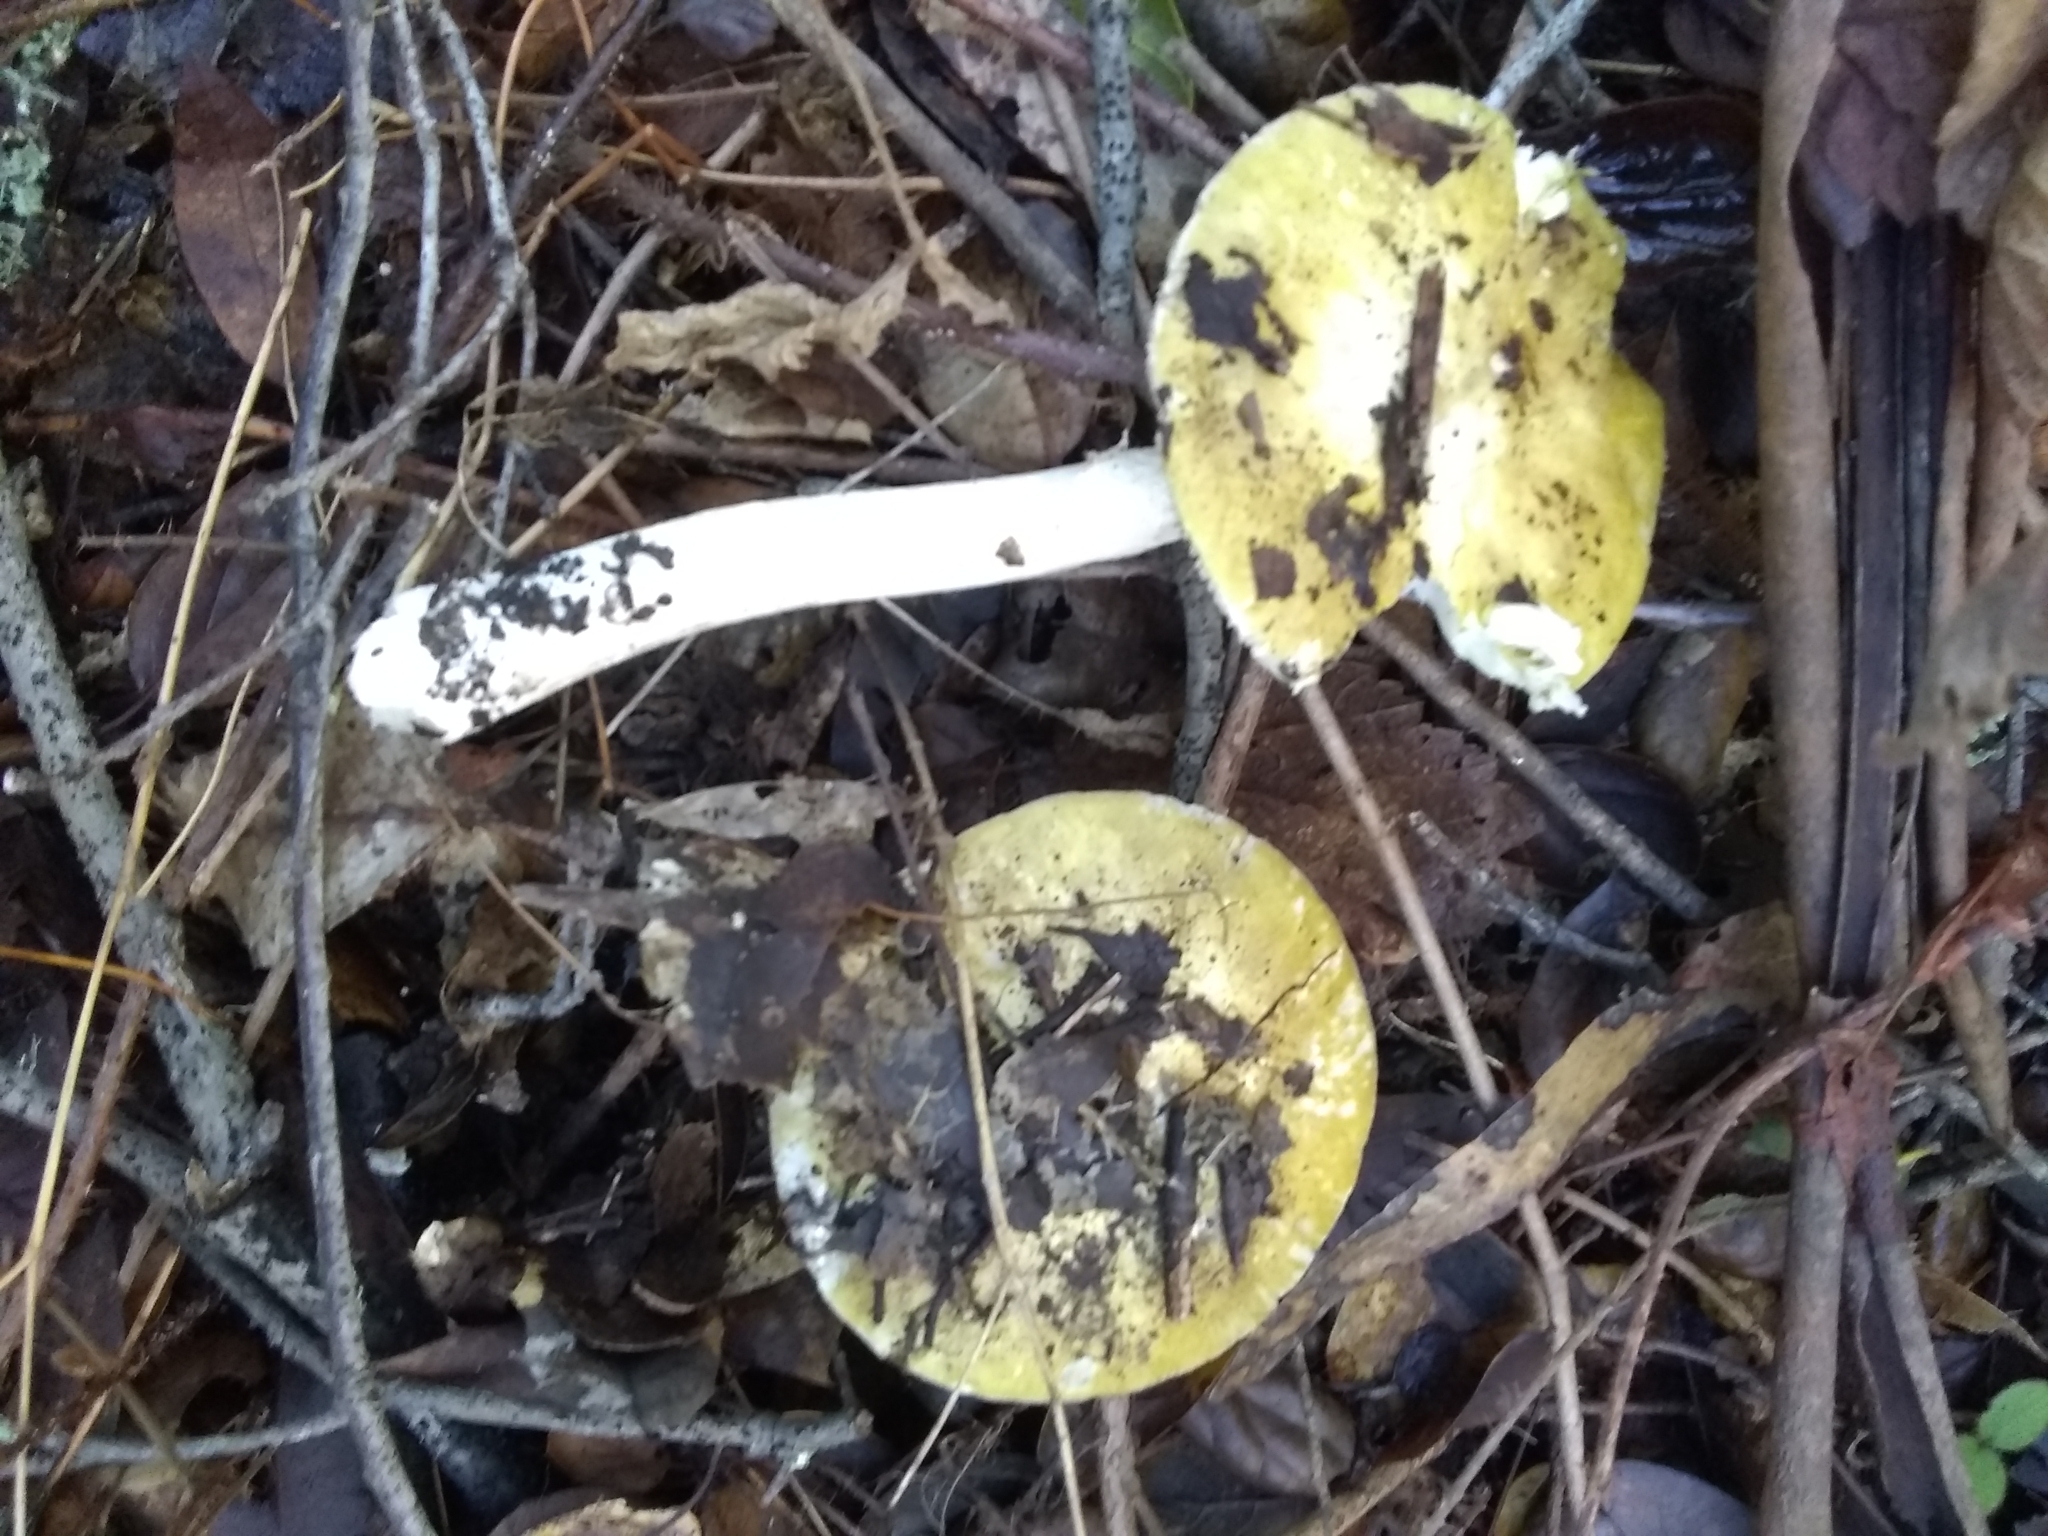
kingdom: Fungi
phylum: Basidiomycota
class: Agaricomycetes
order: Agaricales
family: Amanitaceae
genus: Amanita
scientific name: Amanita phalloides
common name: Death cap
